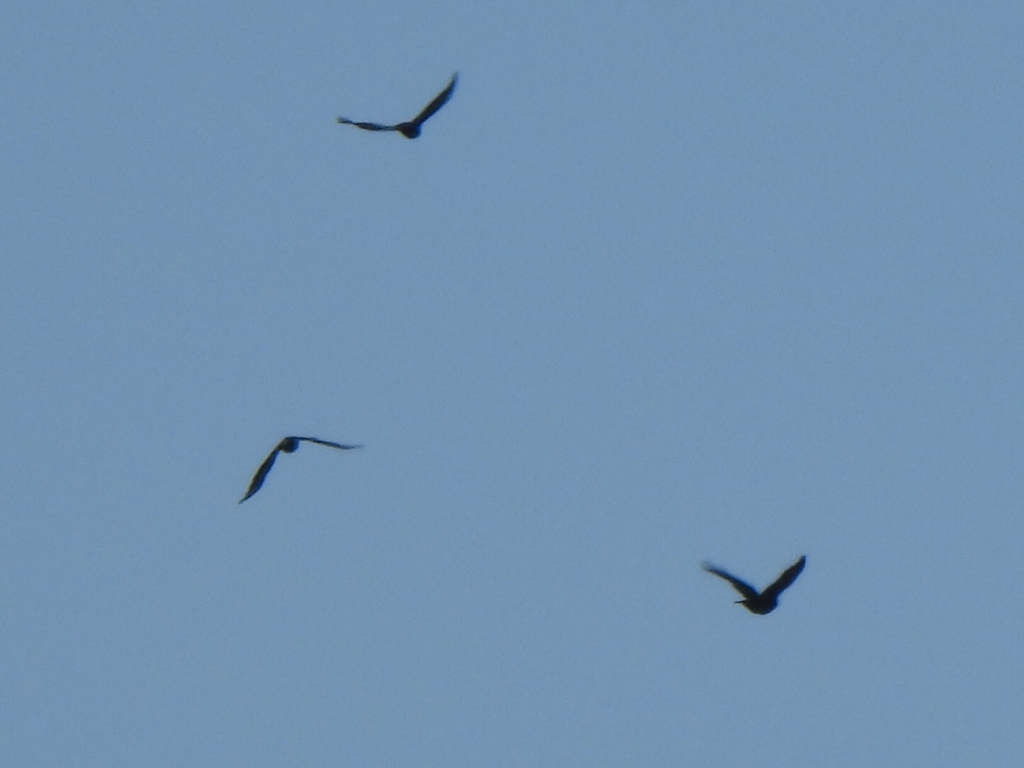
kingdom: Animalia
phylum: Chordata
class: Aves
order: Passeriformes
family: Corvidae
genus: Corvus
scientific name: Corvus brachyrhynchos
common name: American crow
